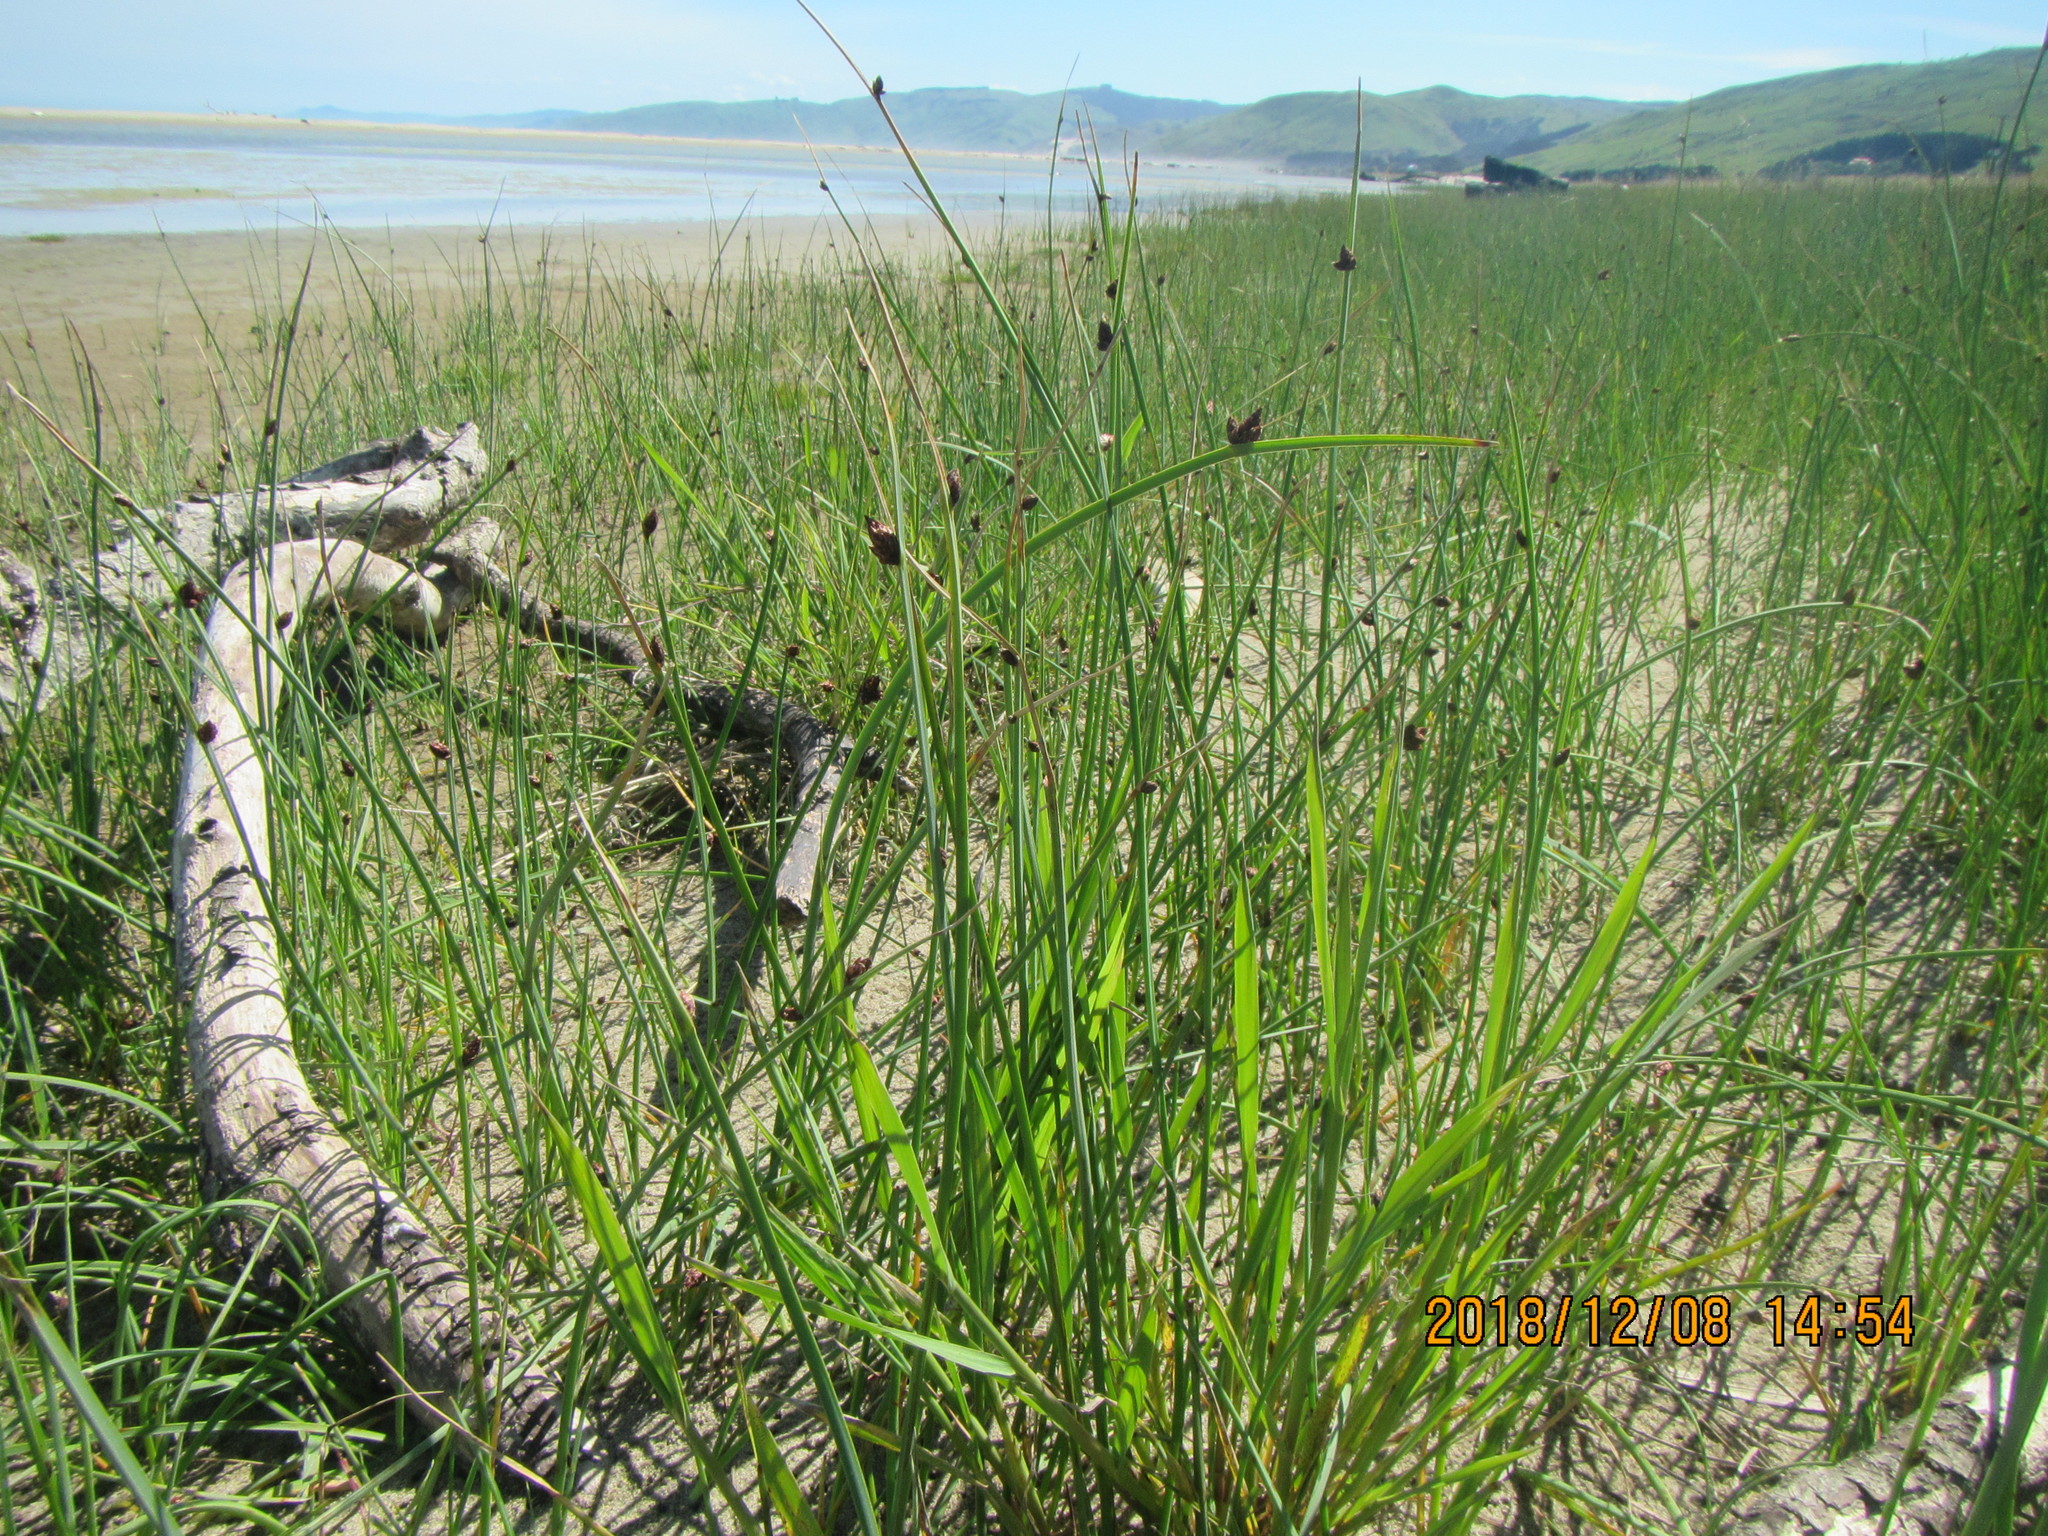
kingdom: Plantae
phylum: Tracheophyta
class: Liliopsida
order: Poales
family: Cyperaceae
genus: Schoenoplectus
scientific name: Schoenoplectus pungens
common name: Sharp club-rush
